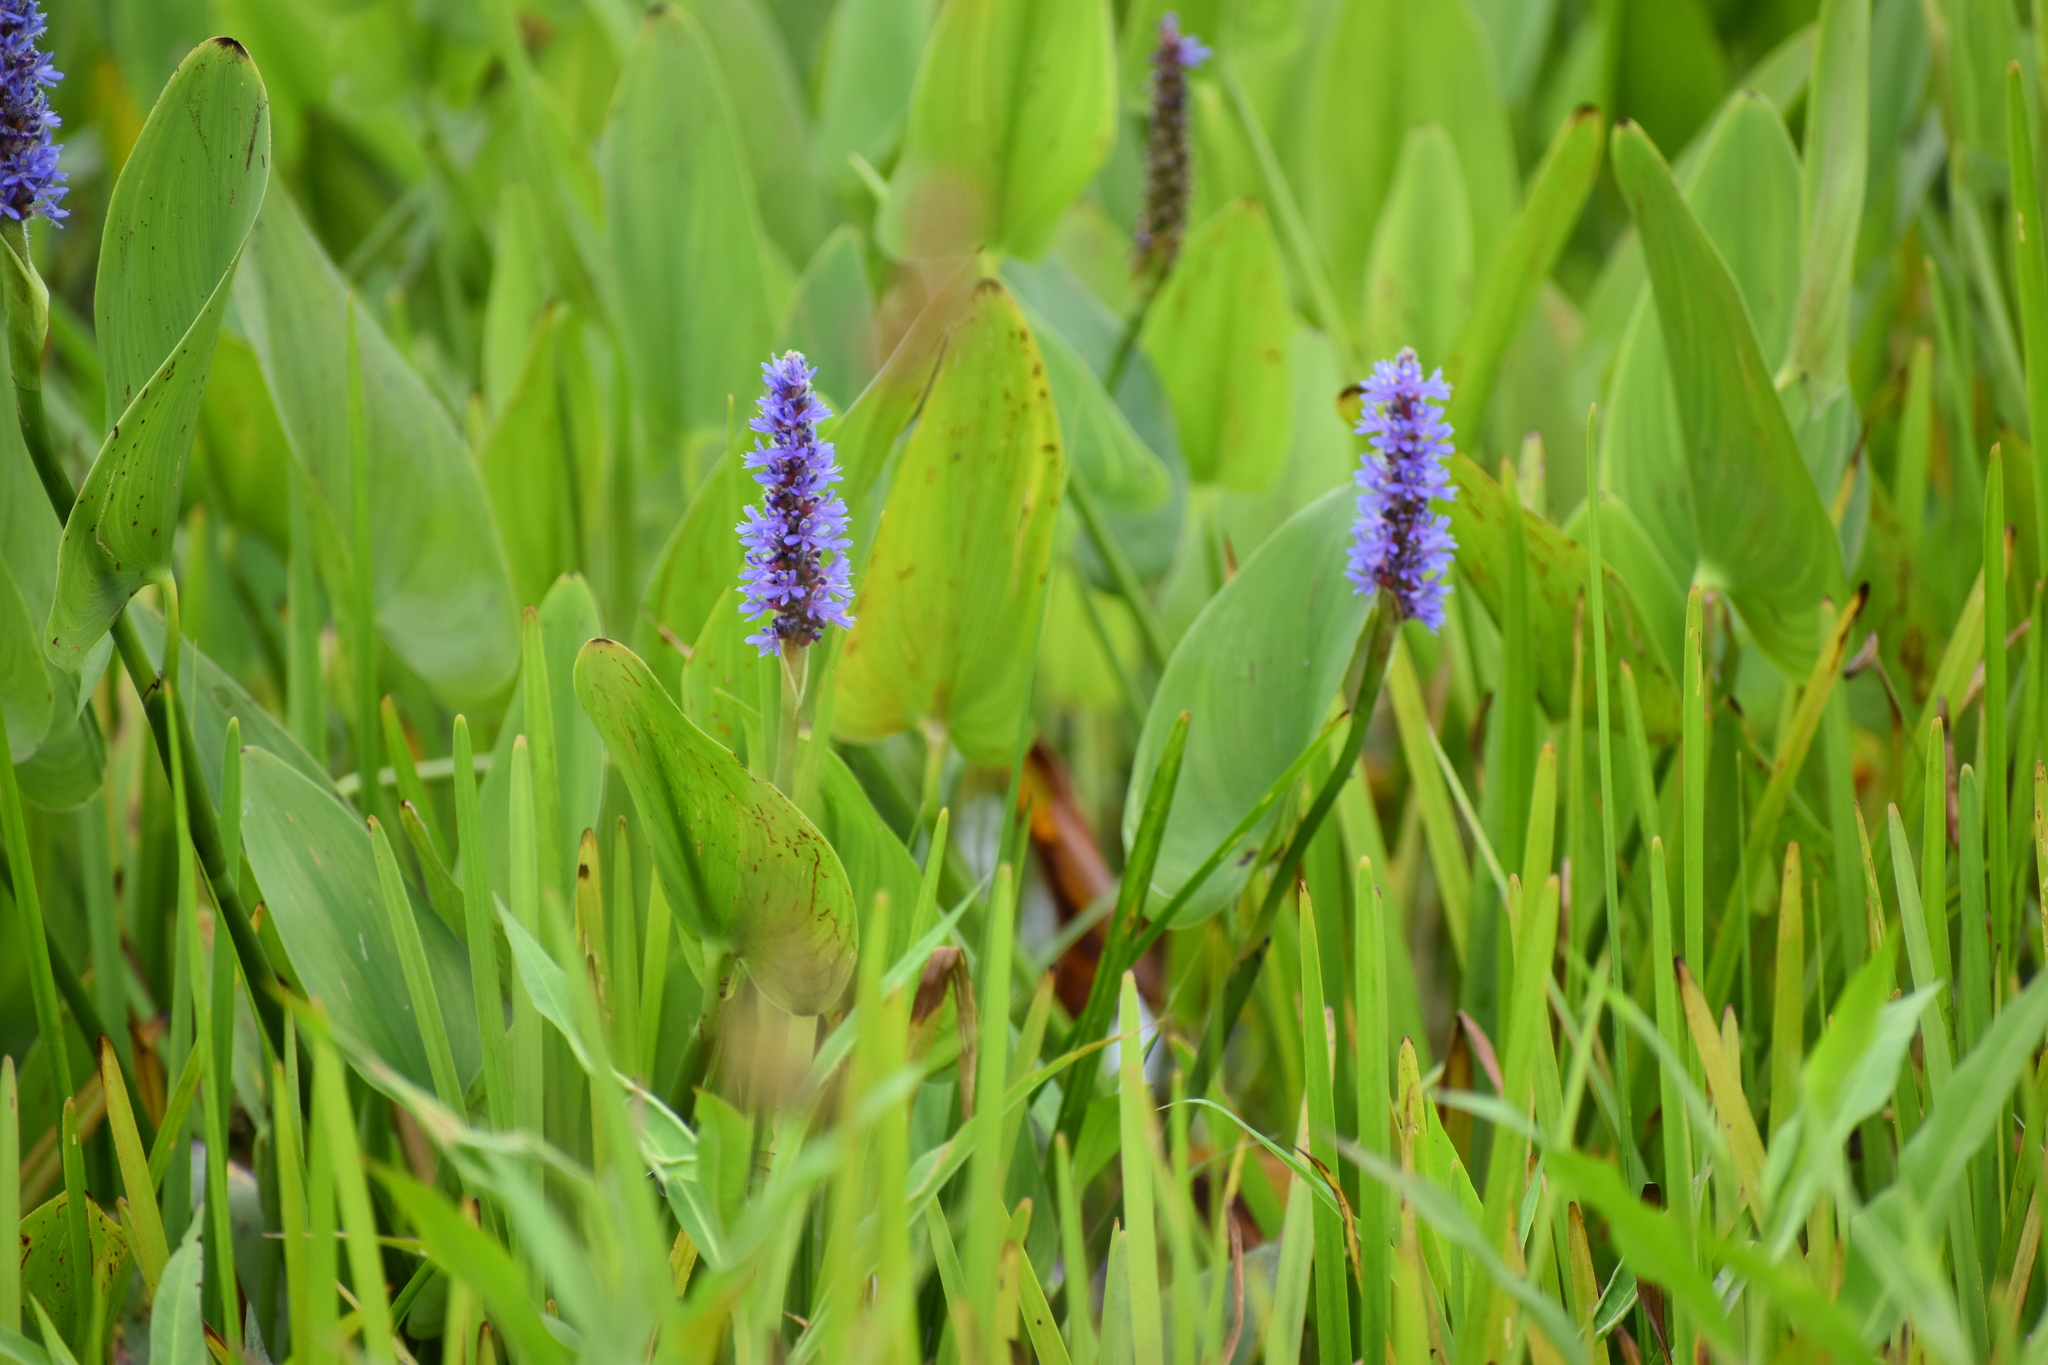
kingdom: Plantae
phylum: Tracheophyta
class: Liliopsida
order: Commelinales
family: Pontederiaceae
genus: Pontederia
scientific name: Pontederia cordata
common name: Pickerelweed
